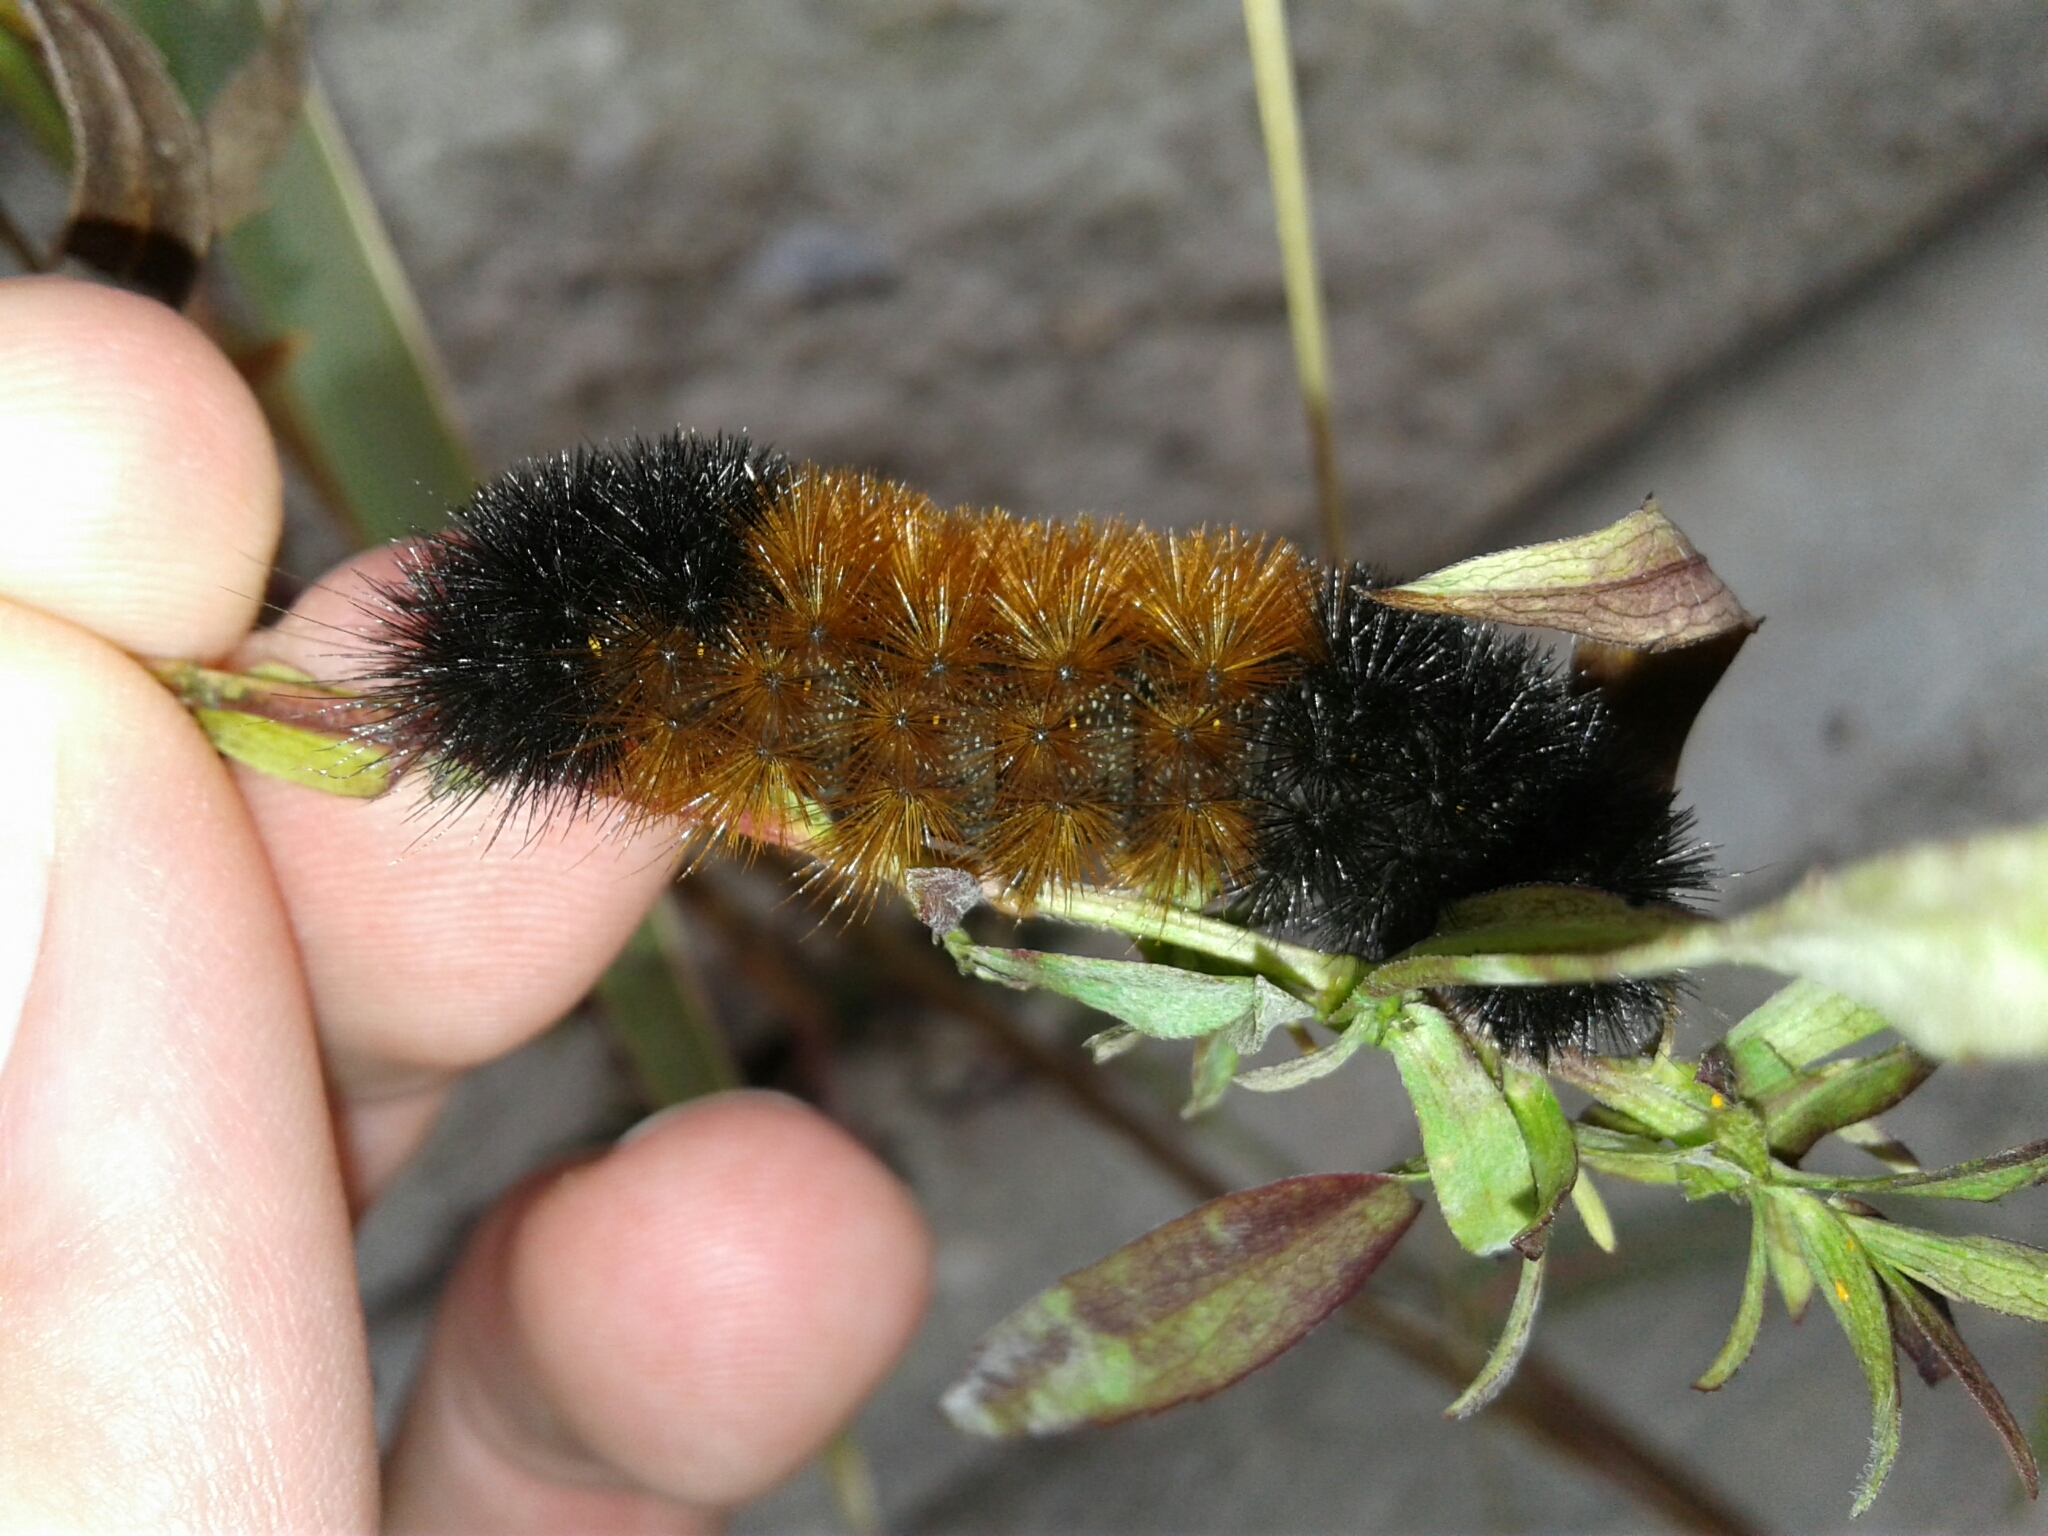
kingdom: Animalia
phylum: Arthropoda
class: Insecta
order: Lepidoptera
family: Erebidae
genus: Pyrrharctia
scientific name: Pyrrharctia isabella
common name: Isabella tiger moth
